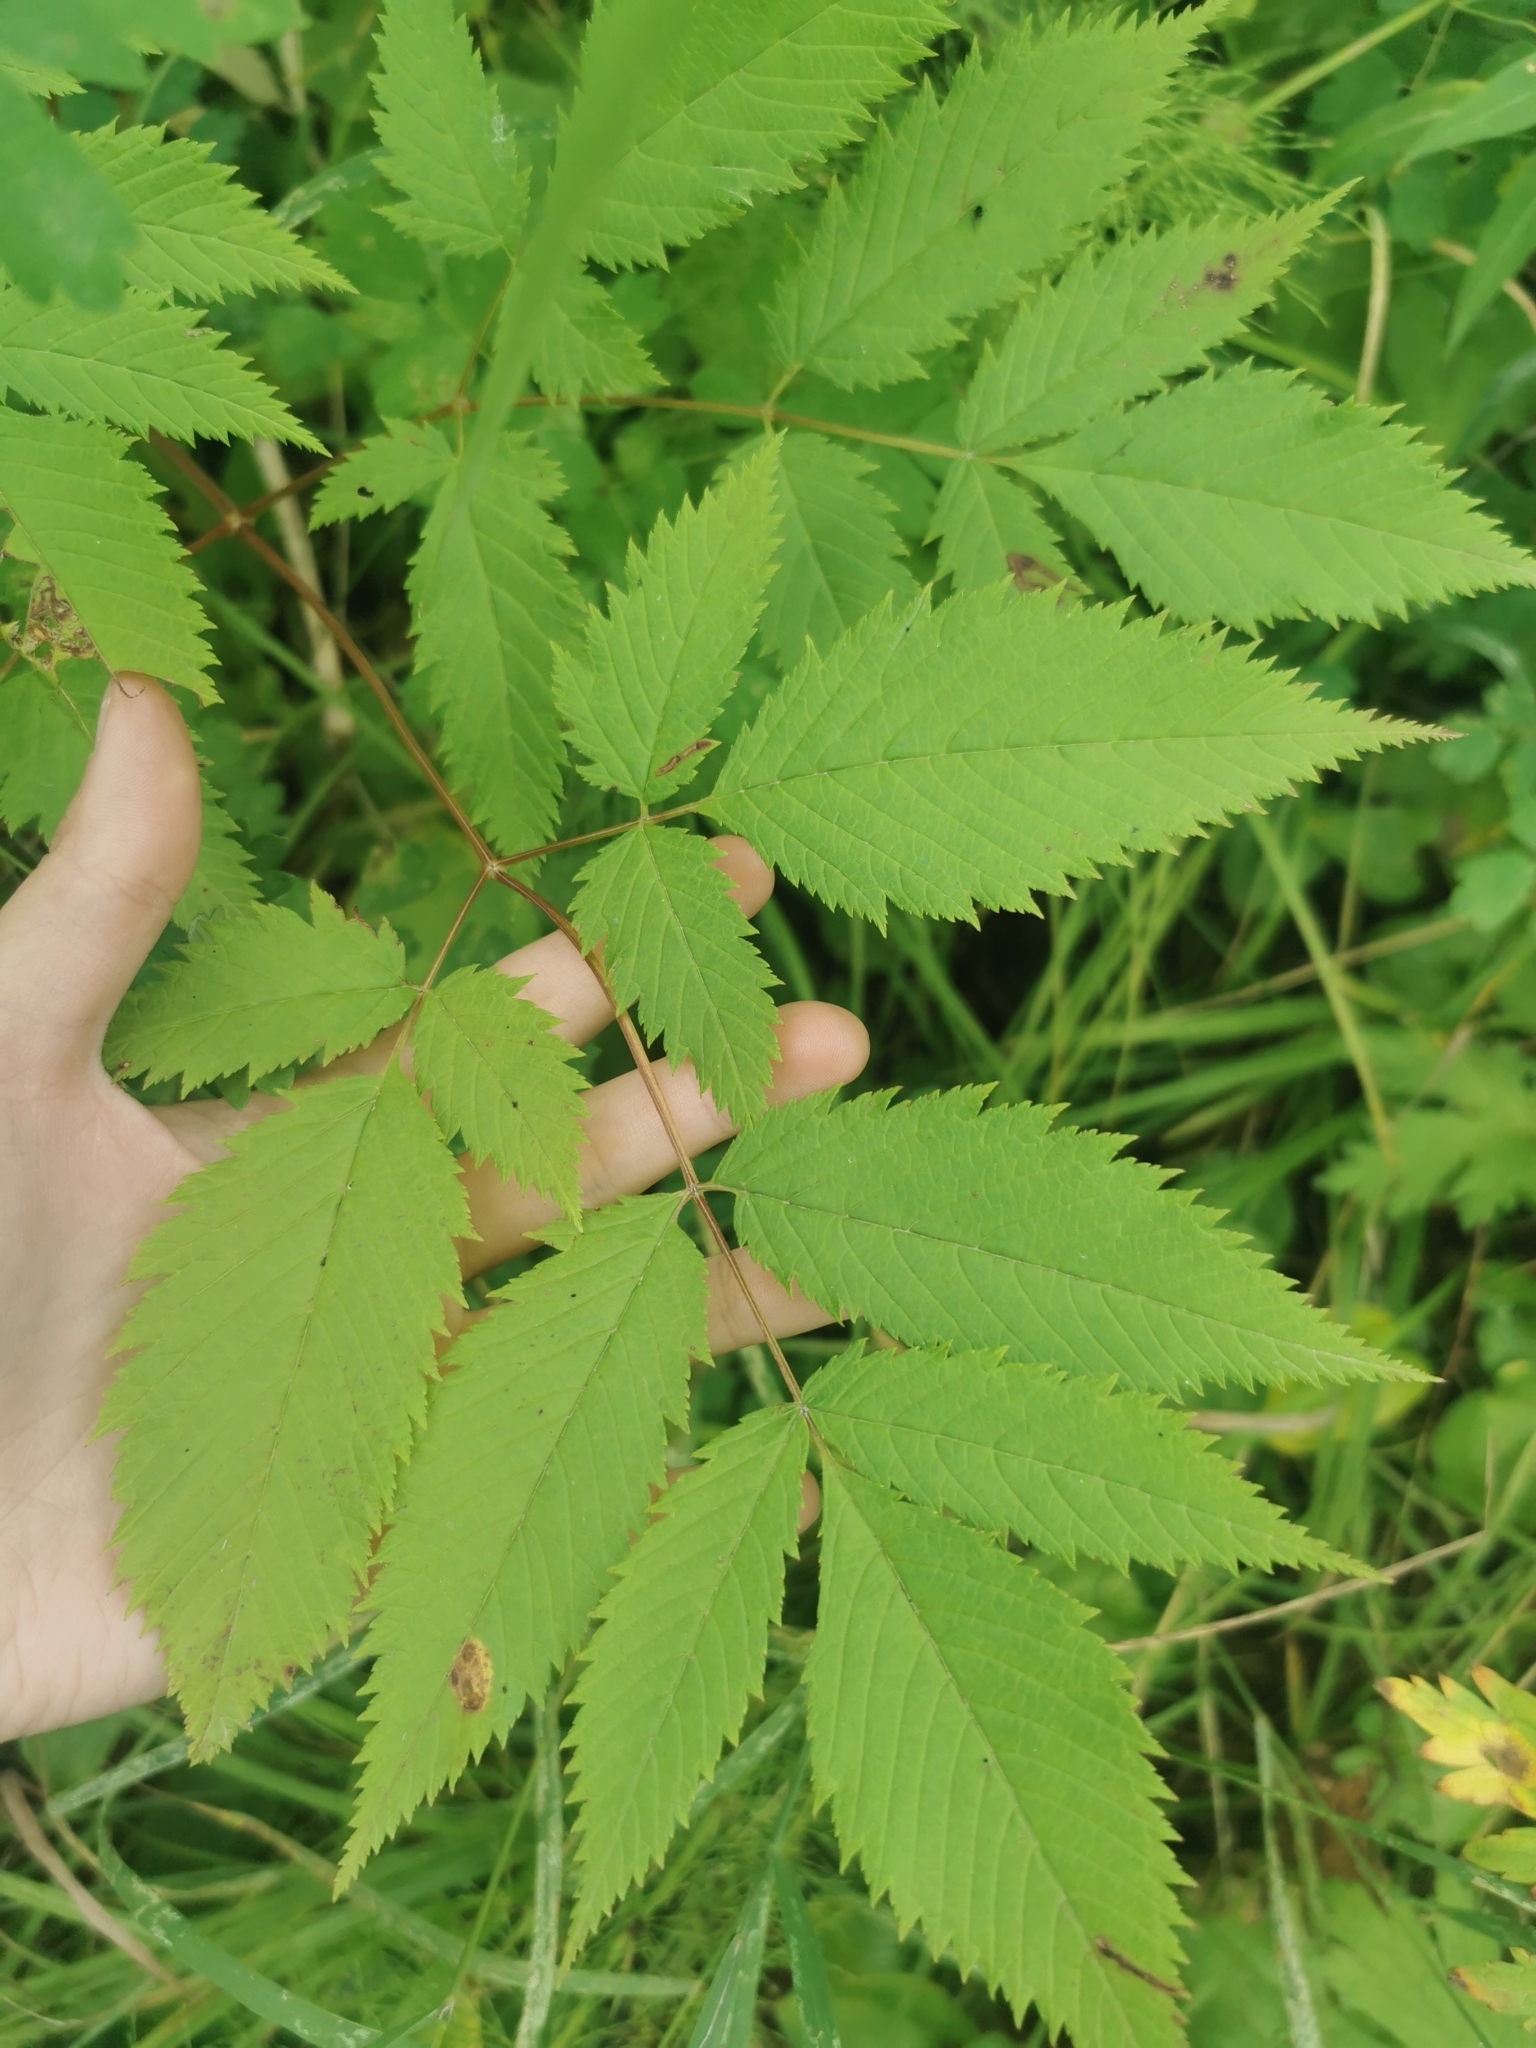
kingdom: Plantae
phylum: Tracheophyta
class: Magnoliopsida
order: Rosales
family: Rosaceae
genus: Aruncus
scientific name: Aruncus dioicus
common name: Buck's-beard
